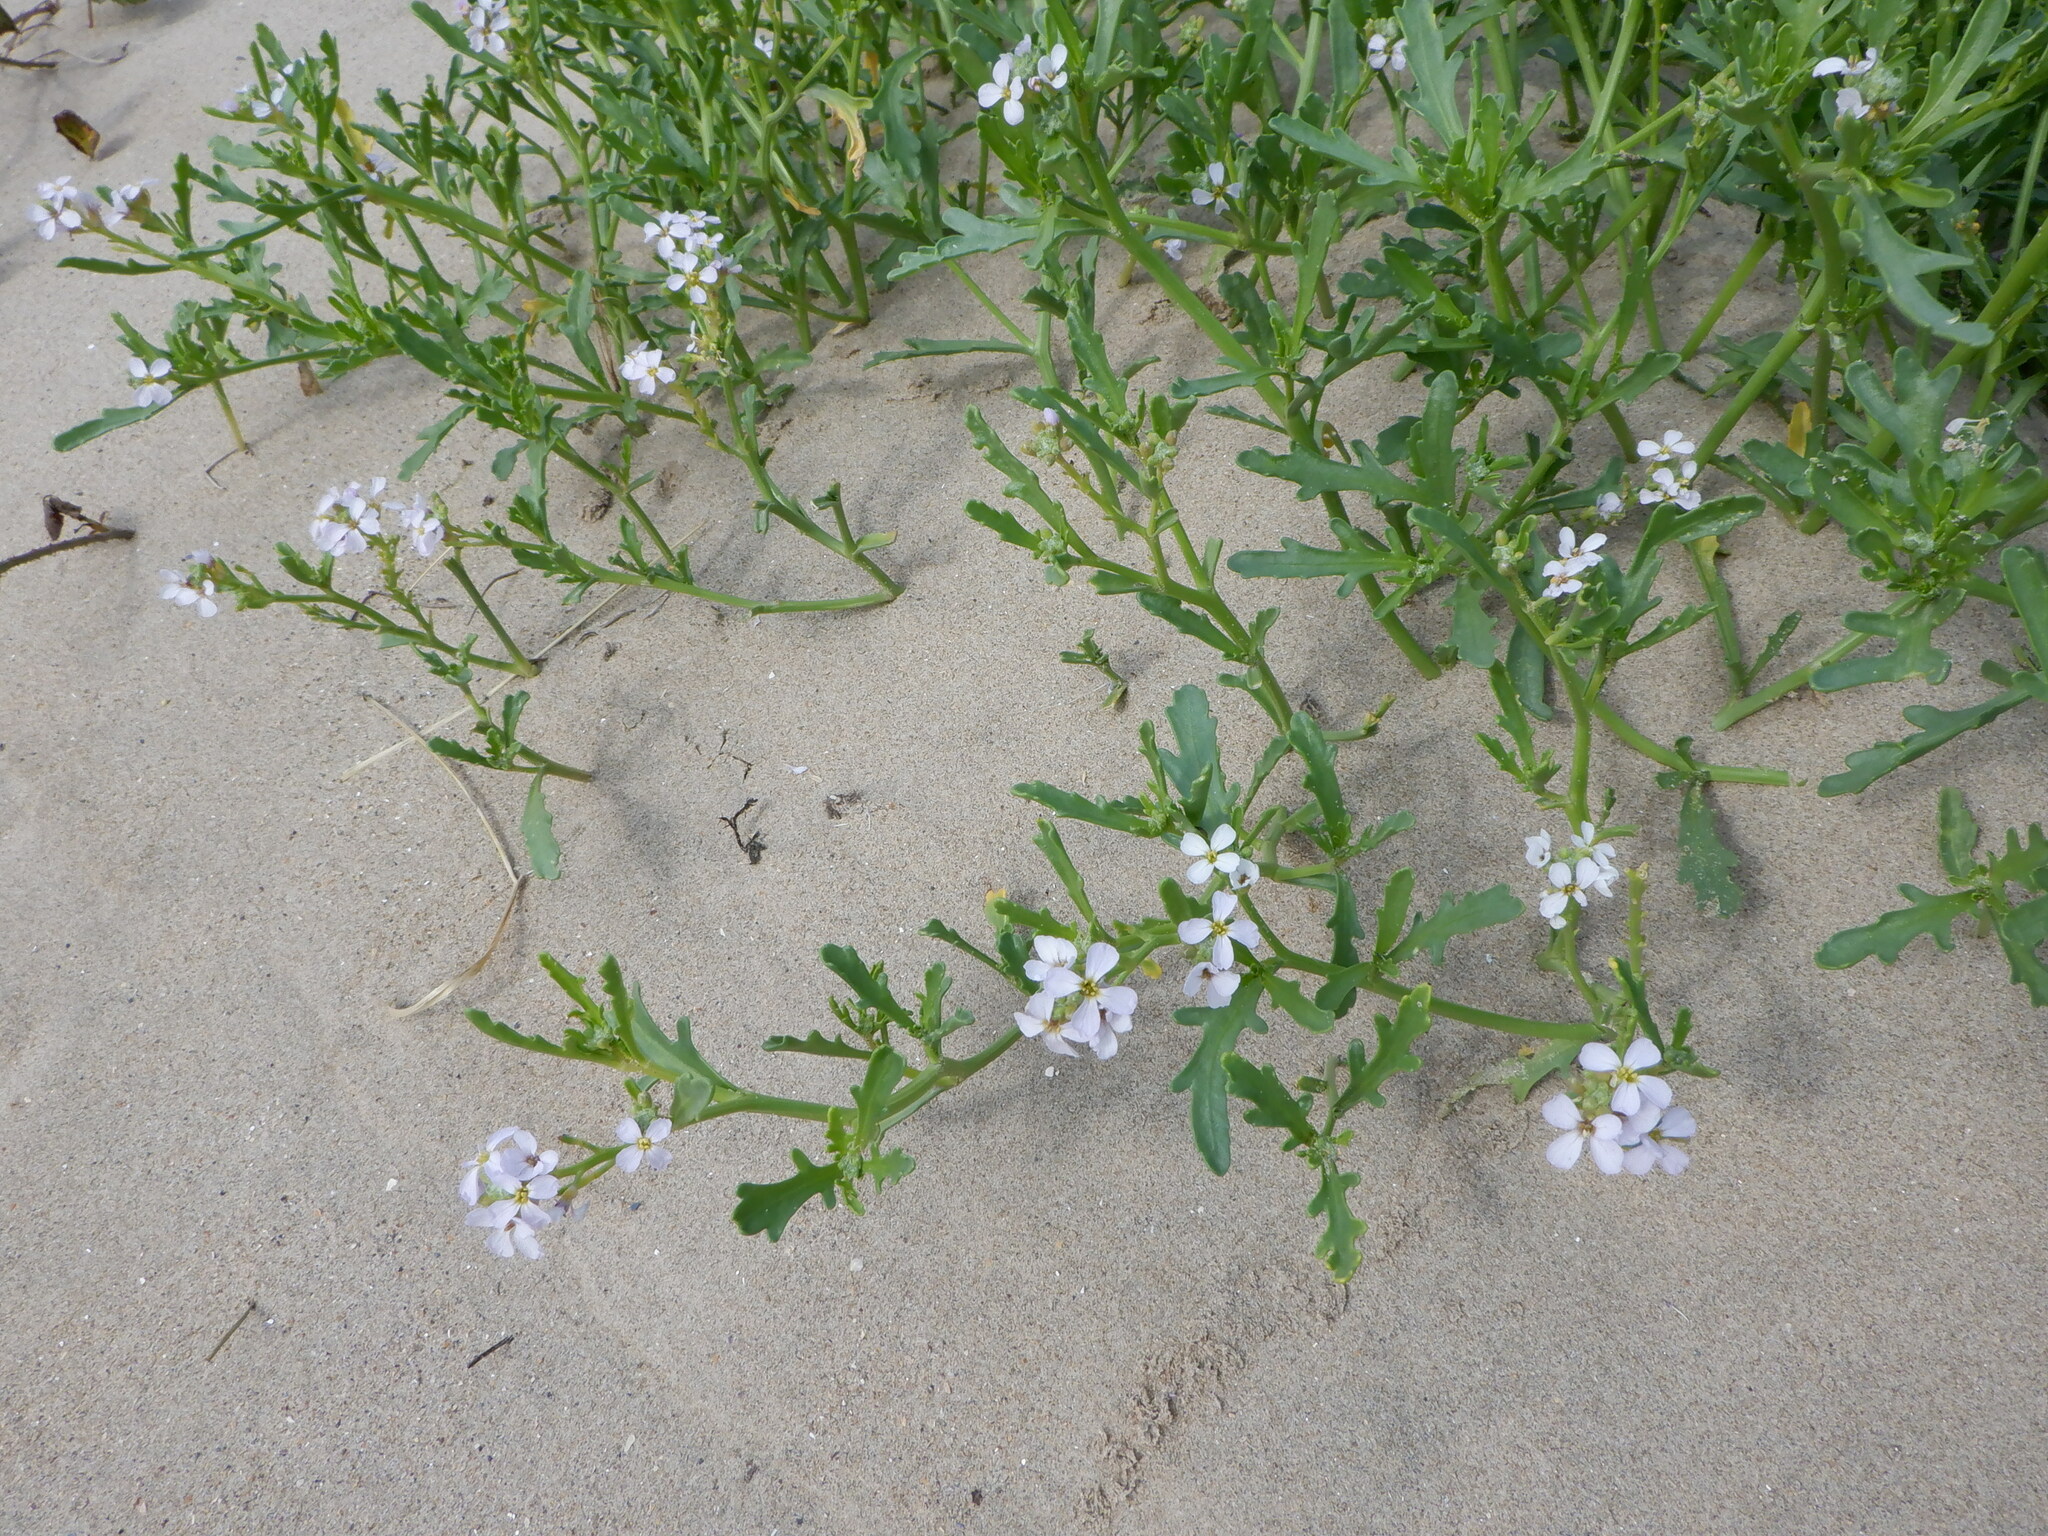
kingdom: Plantae
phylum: Tracheophyta
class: Magnoliopsida
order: Brassicales
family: Brassicaceae
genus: Cakile
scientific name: Cakile maritima
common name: Sea rocket
